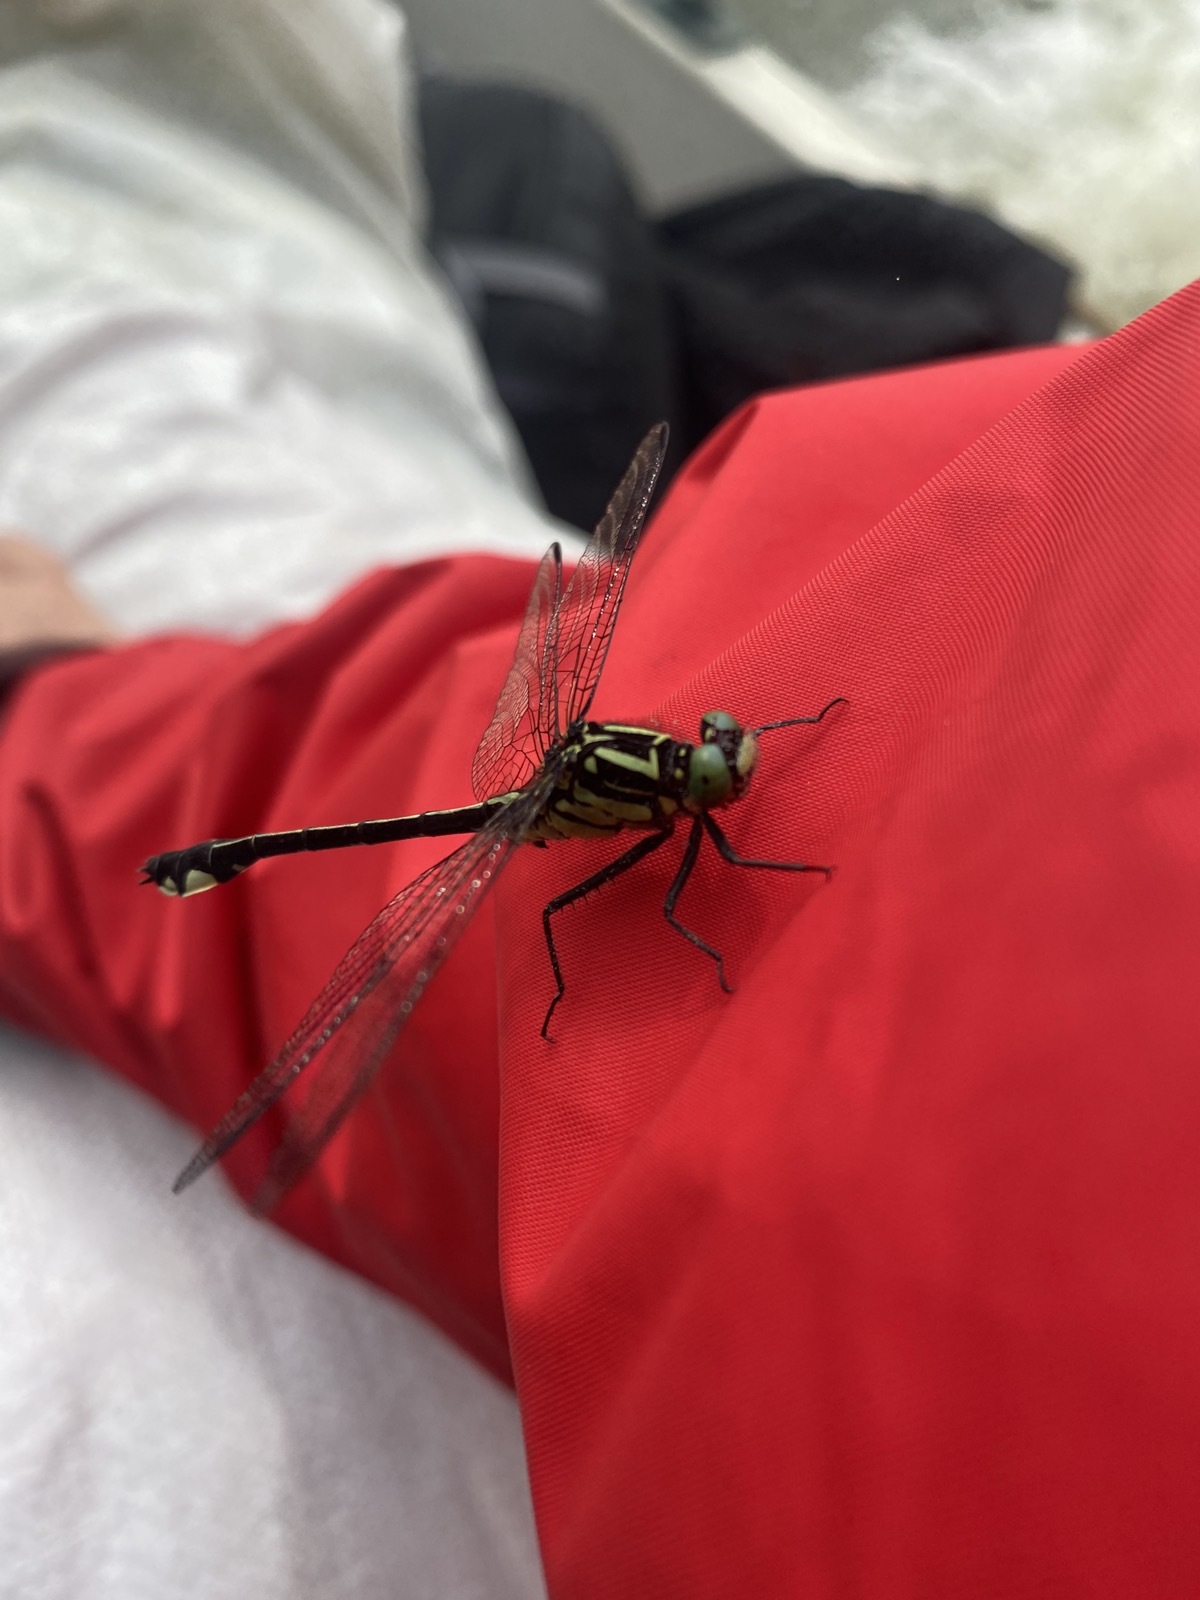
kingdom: Animalia
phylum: Arthropoda
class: Insecta
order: Odonata
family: Gomphidae
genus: Anisogomphus
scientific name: Anisogomphus maacki
